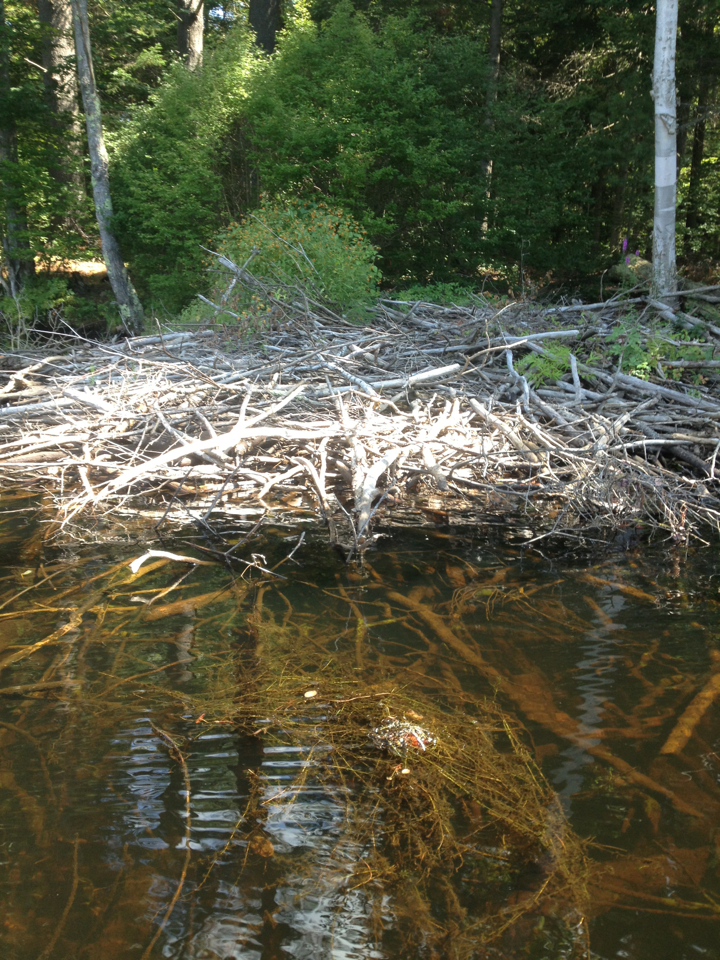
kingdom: Animalia
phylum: Chordata
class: Mammalia
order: Rodentia
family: Castoridae
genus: Castor
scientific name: Castor canadensis
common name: American beaver
